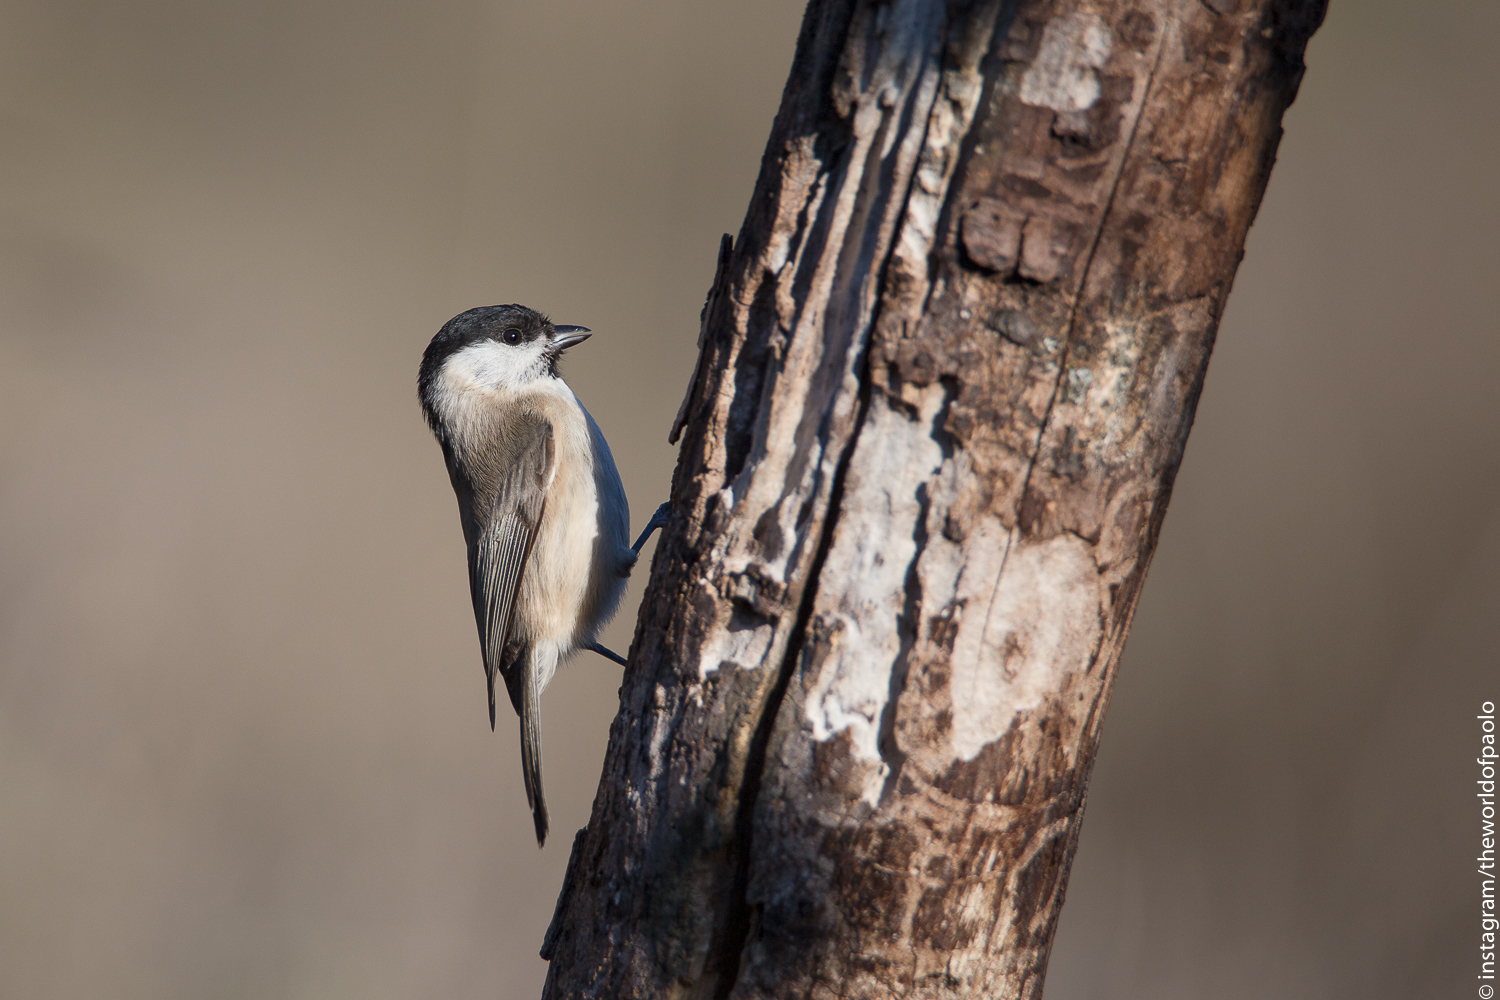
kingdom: Animalia
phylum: Chordata
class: Aves
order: Passeriformes
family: Paridae
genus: Poecile
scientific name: Poecile palustris
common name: Marsh tit
